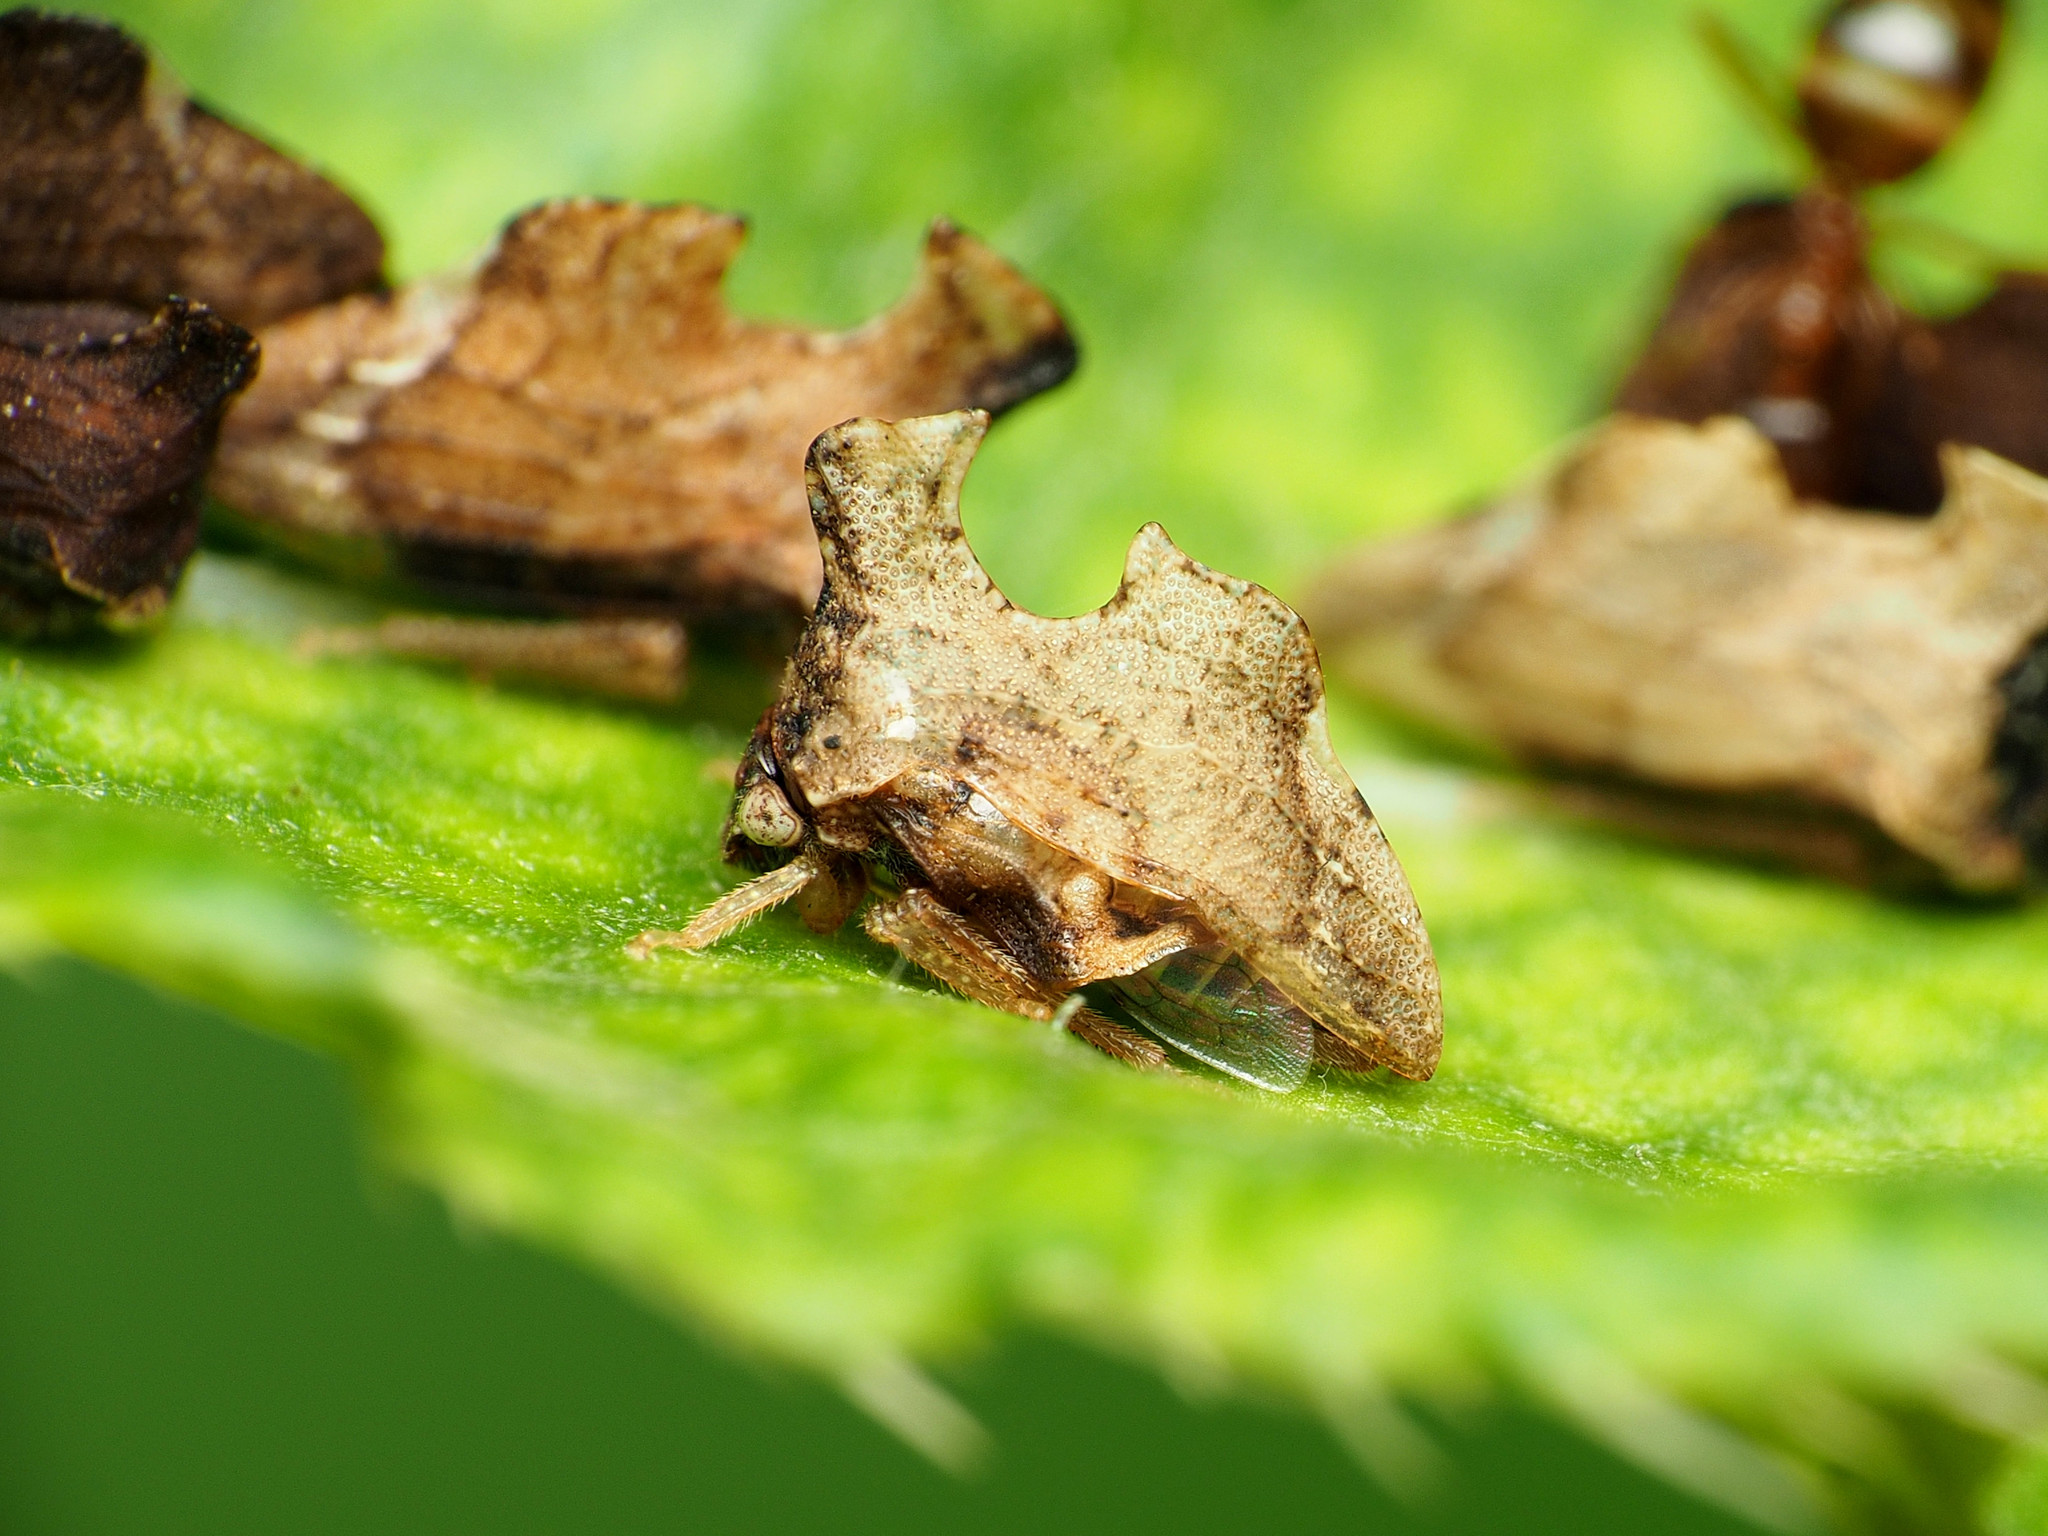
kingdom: Animalia
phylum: Arthropoda
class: Insecta
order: Hemiptera
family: Membracidae
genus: Entylia
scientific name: Entylia carinata
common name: Keeled treehopper
